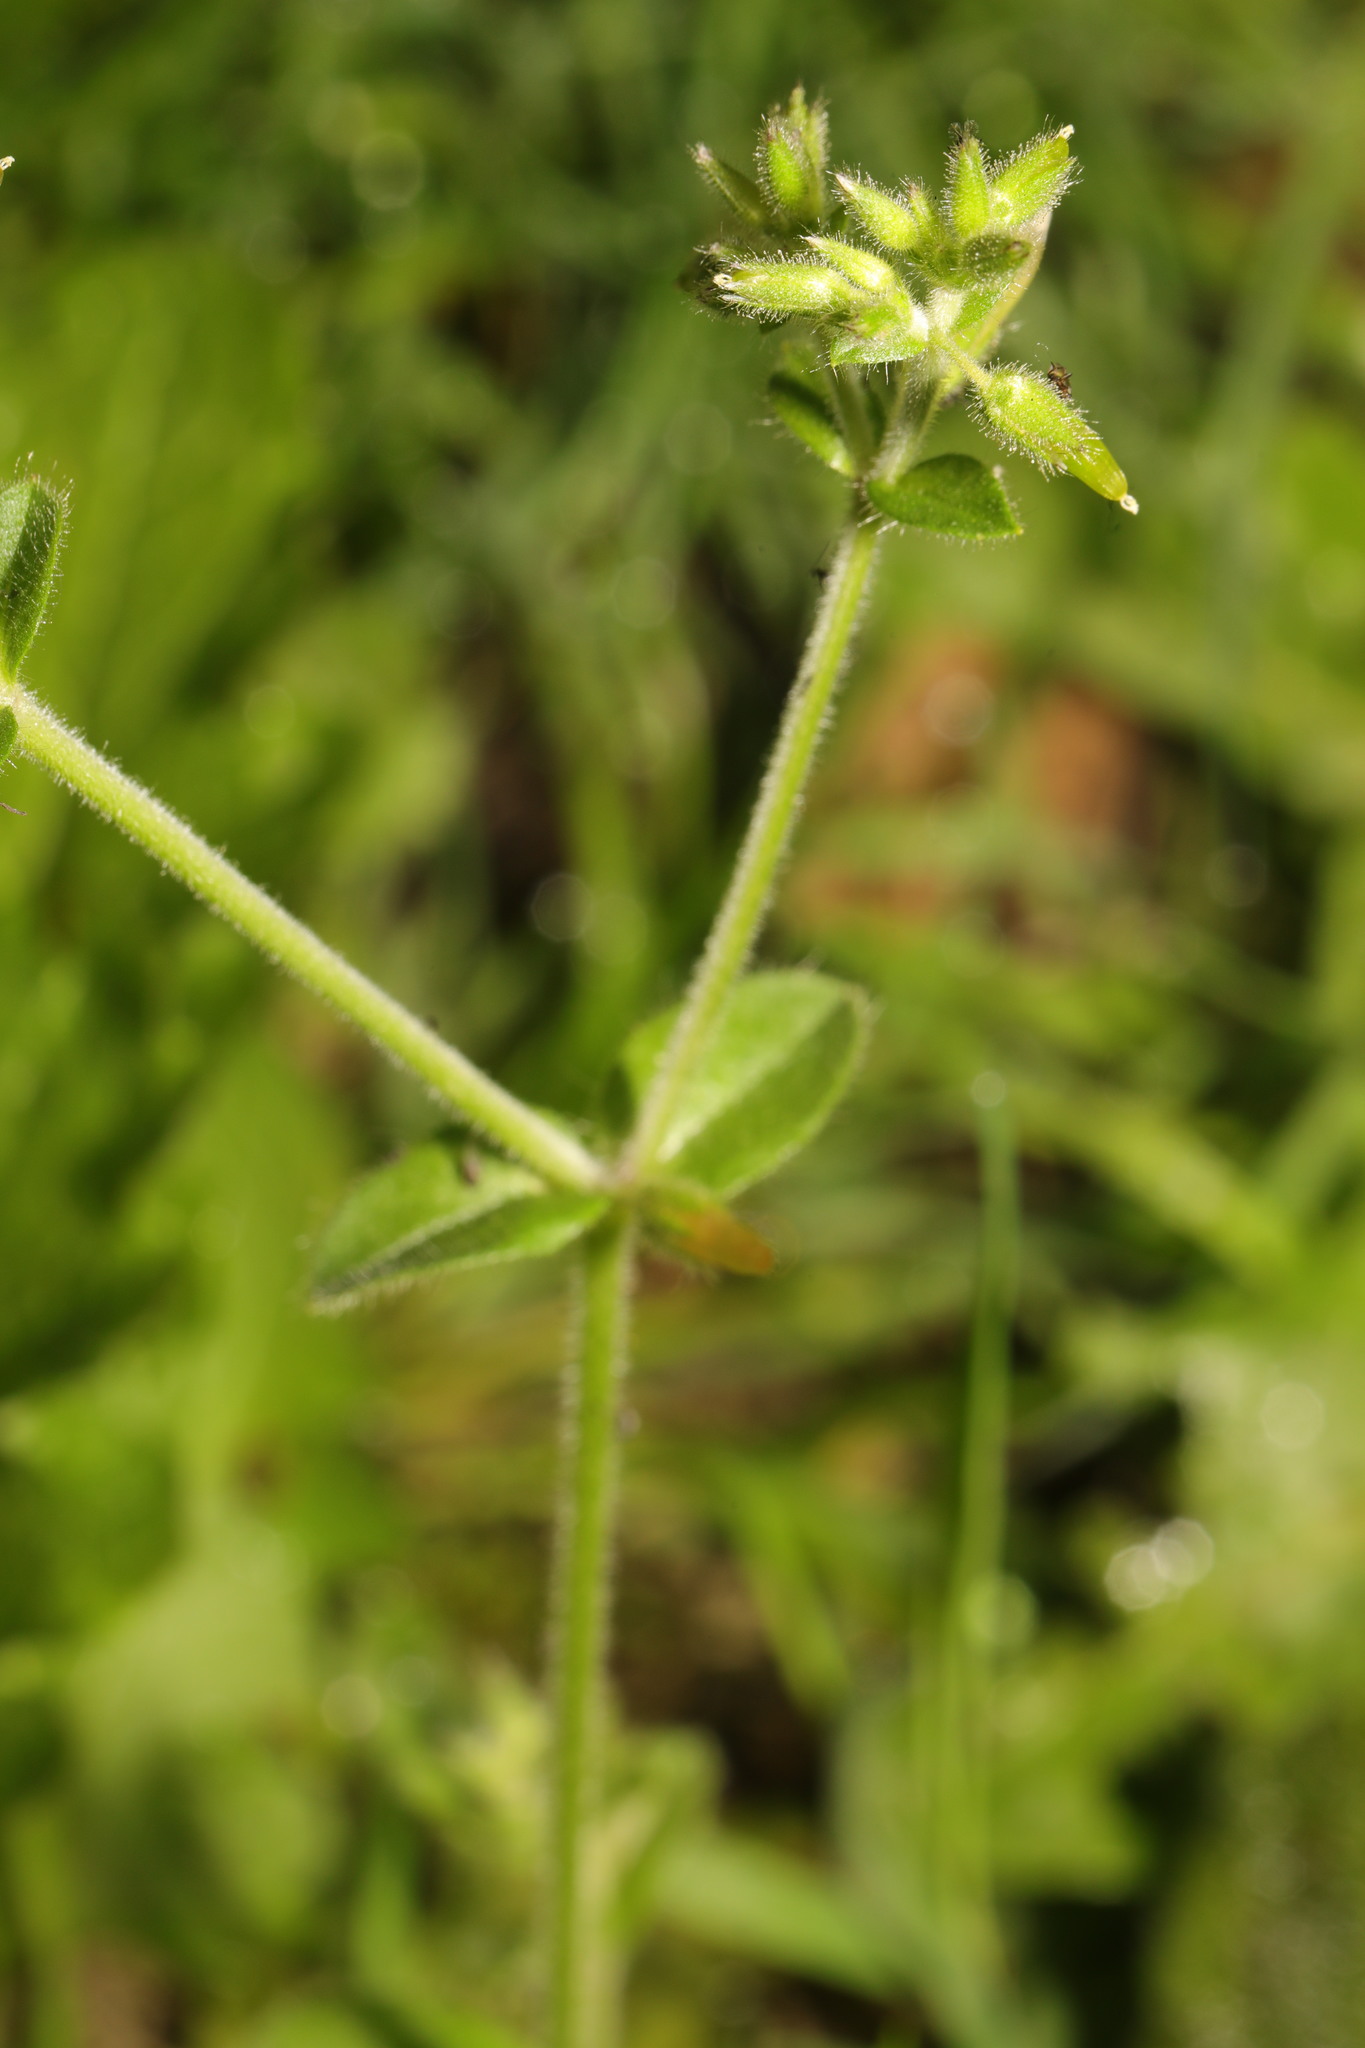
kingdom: Plantae
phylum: Tracheophyta
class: Magnoliopsida
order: Caryophyllales
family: Caryophyllaceae
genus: Cerastium
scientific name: Cerastium glomeratum
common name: Sticky chickweed
